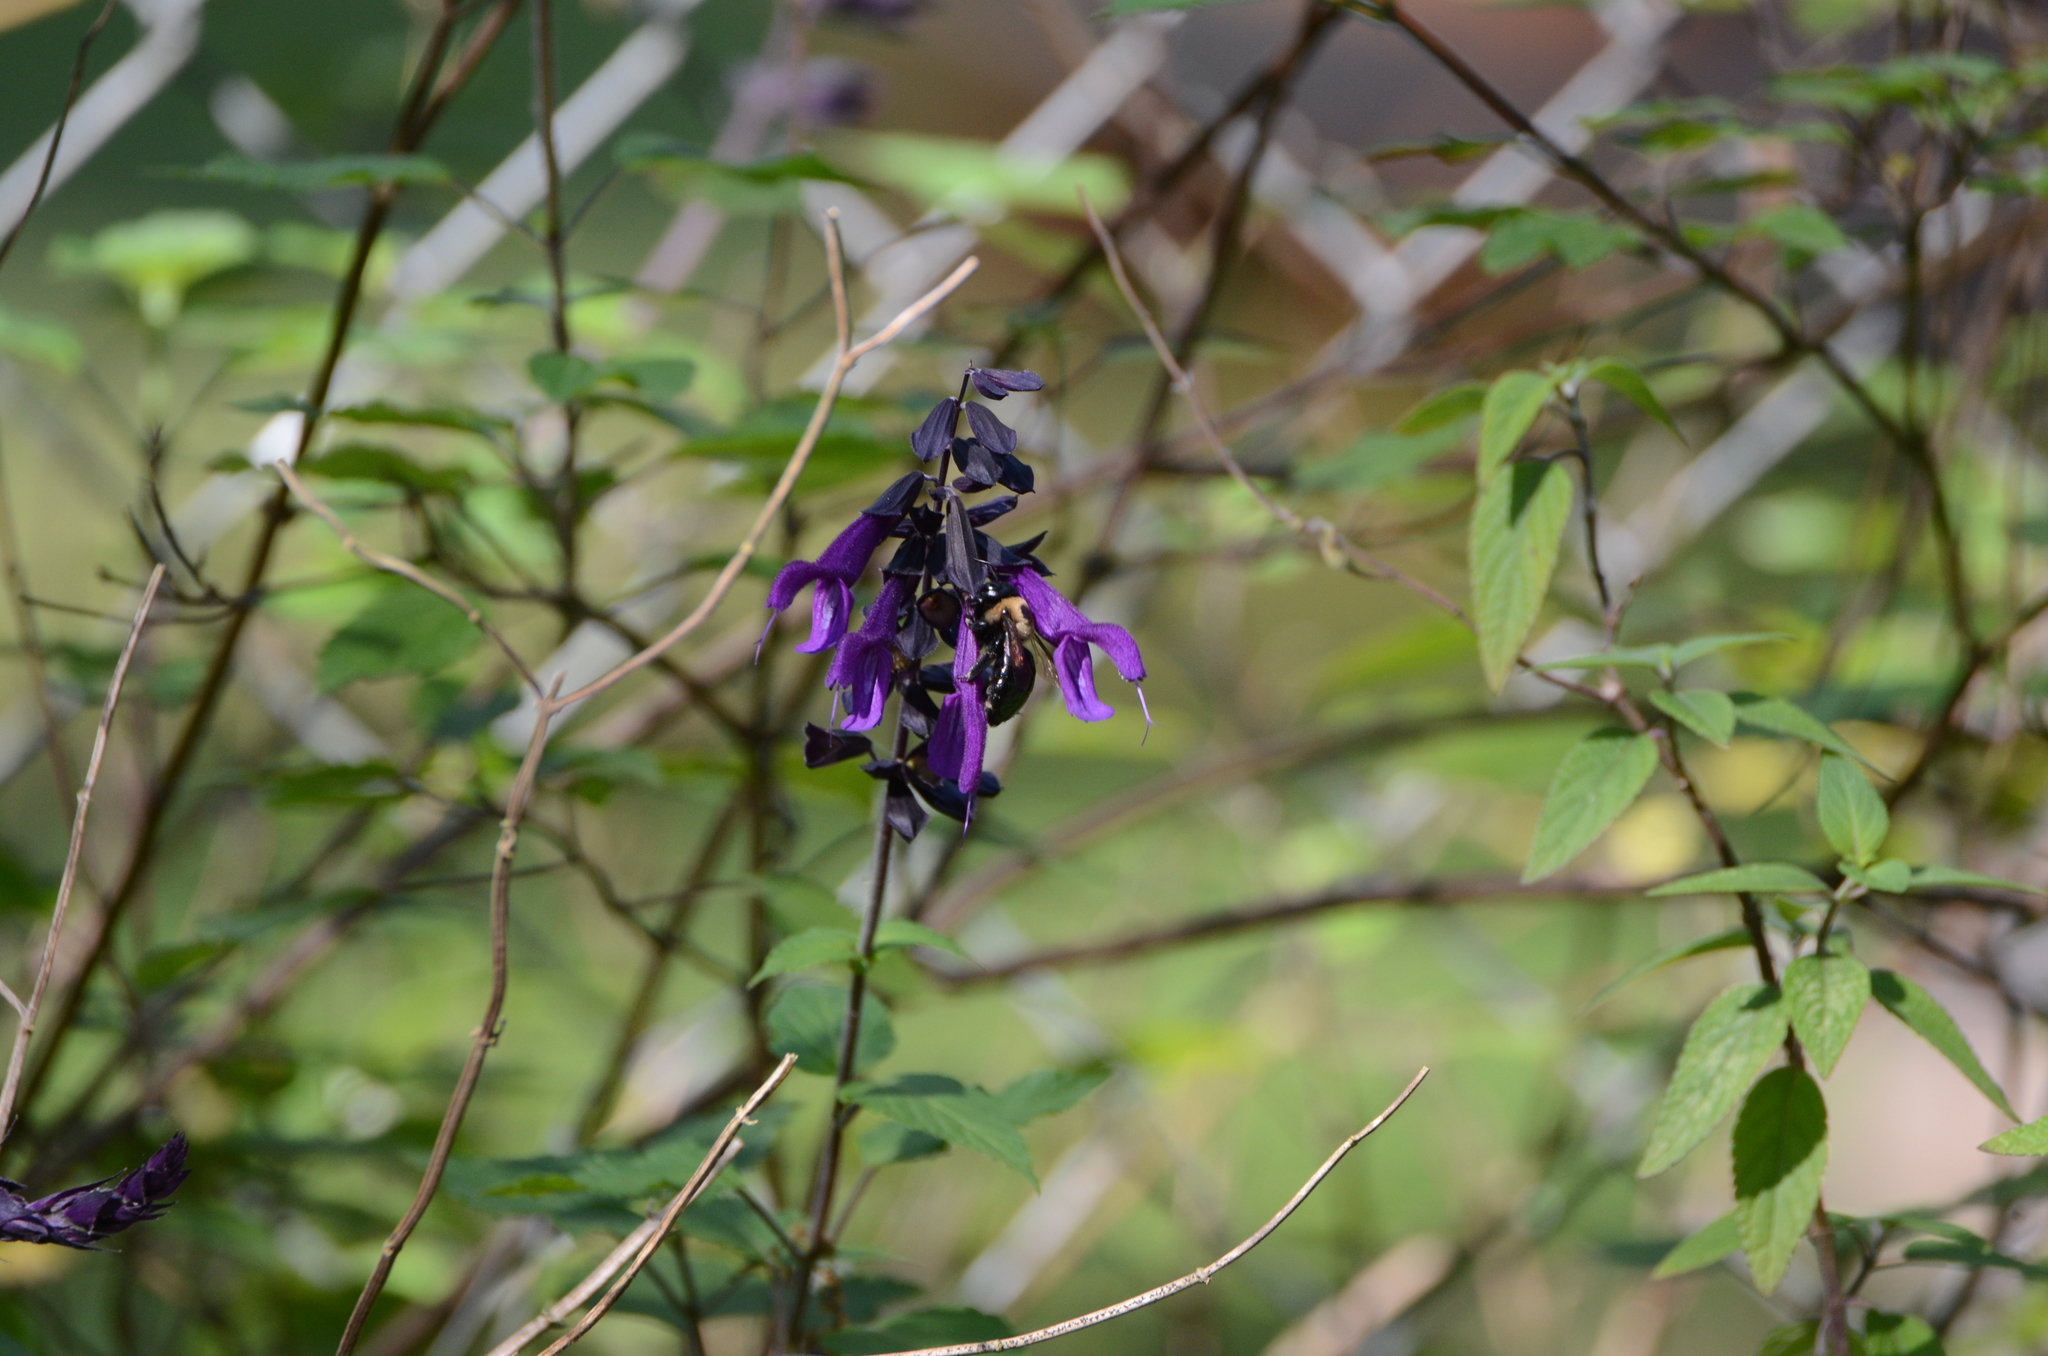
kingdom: Animalia
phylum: Arthropoda
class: Insecta
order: Hymenoptera
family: Apidae
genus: Xylocopa
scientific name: Xylocopa virginica
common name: Carpenter bee
